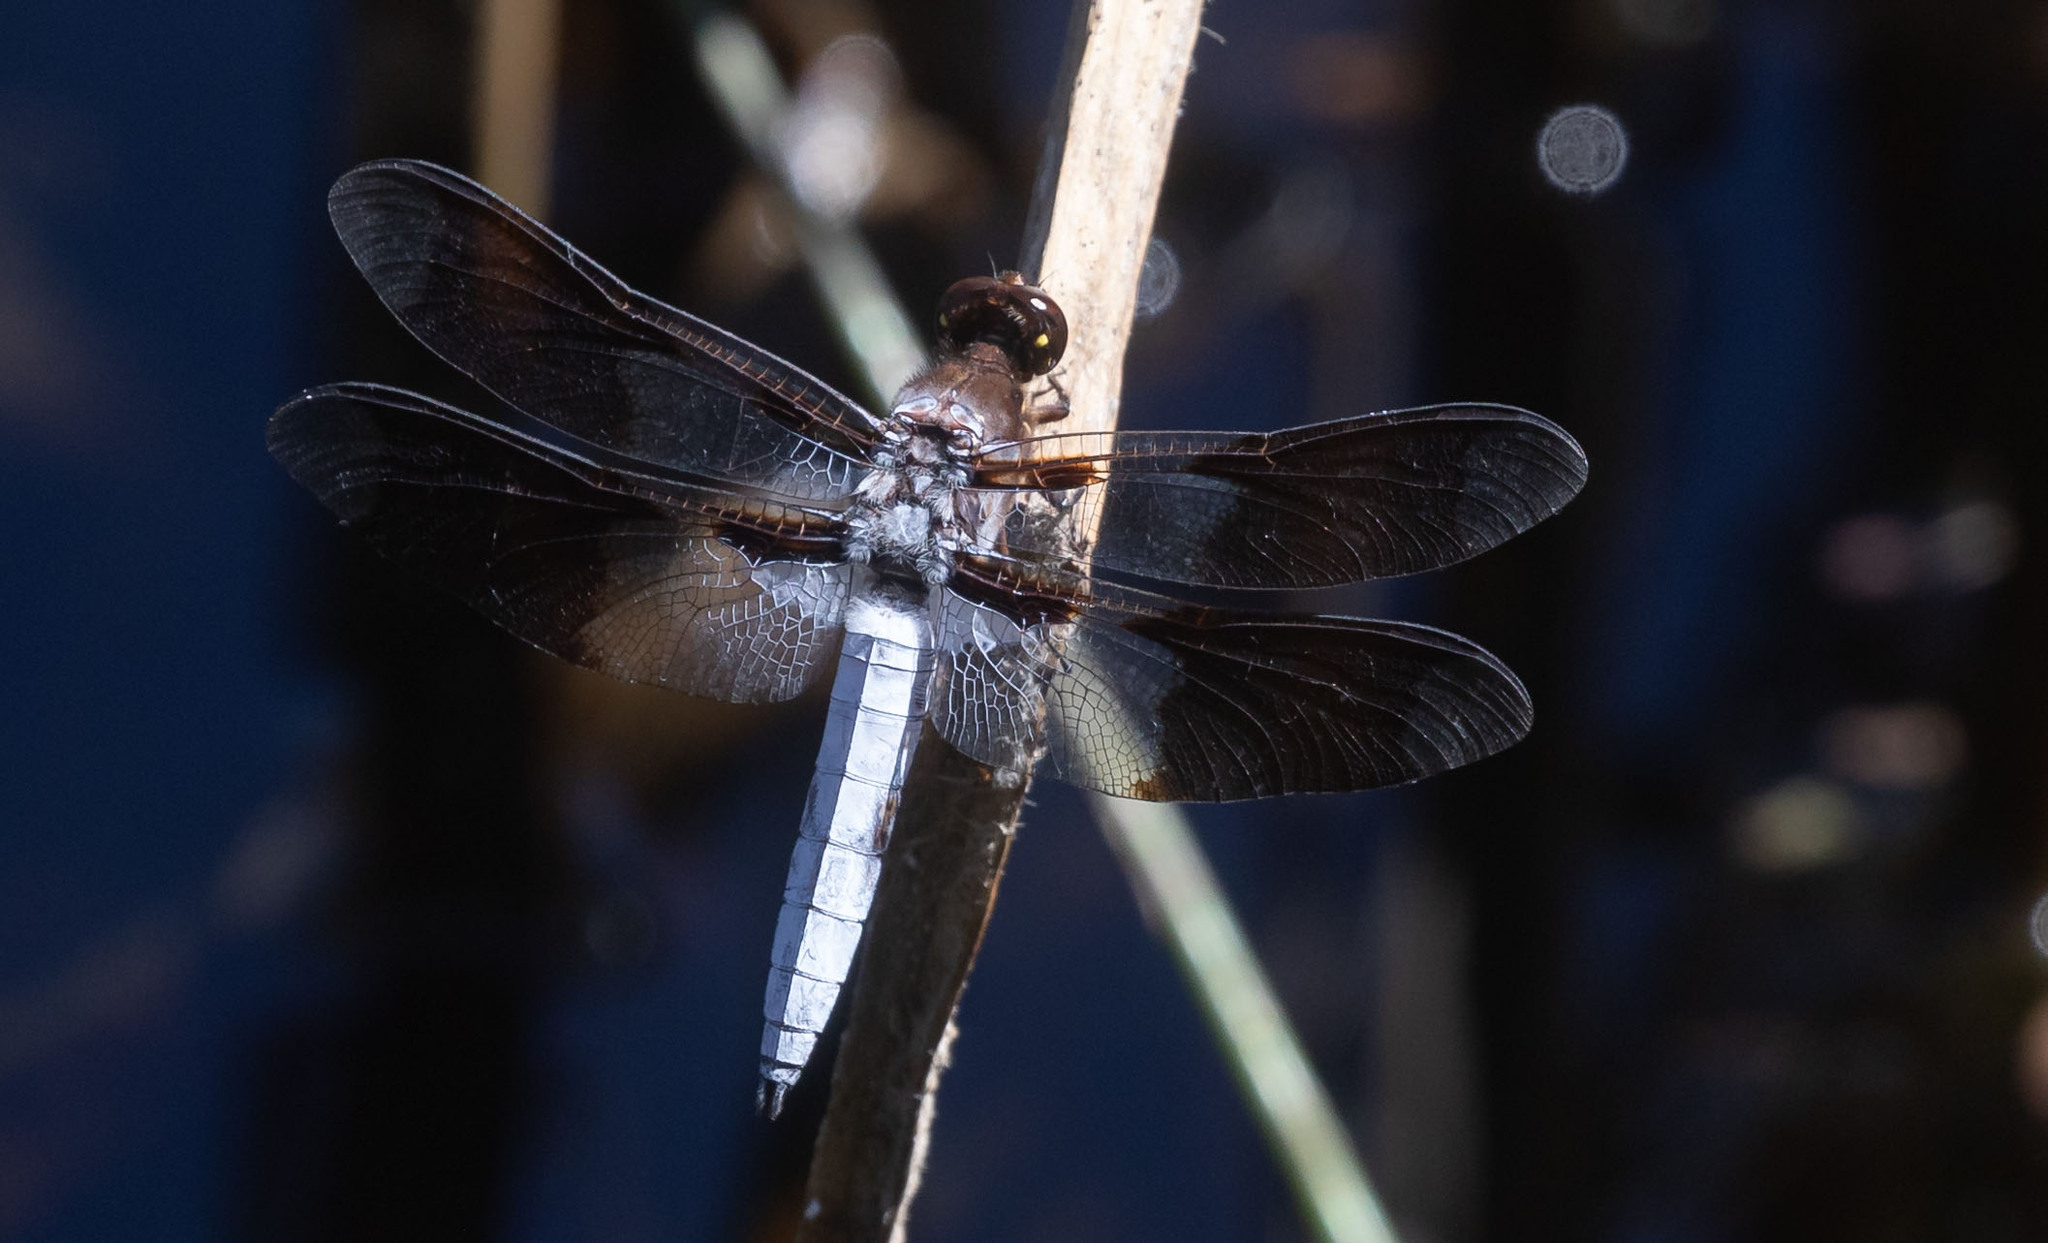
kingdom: Animalia
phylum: Arthropoda
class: Insecta
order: Odonata
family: Libellulidae
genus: Plathemis
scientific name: Plathemis lydia
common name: Common whitetail
